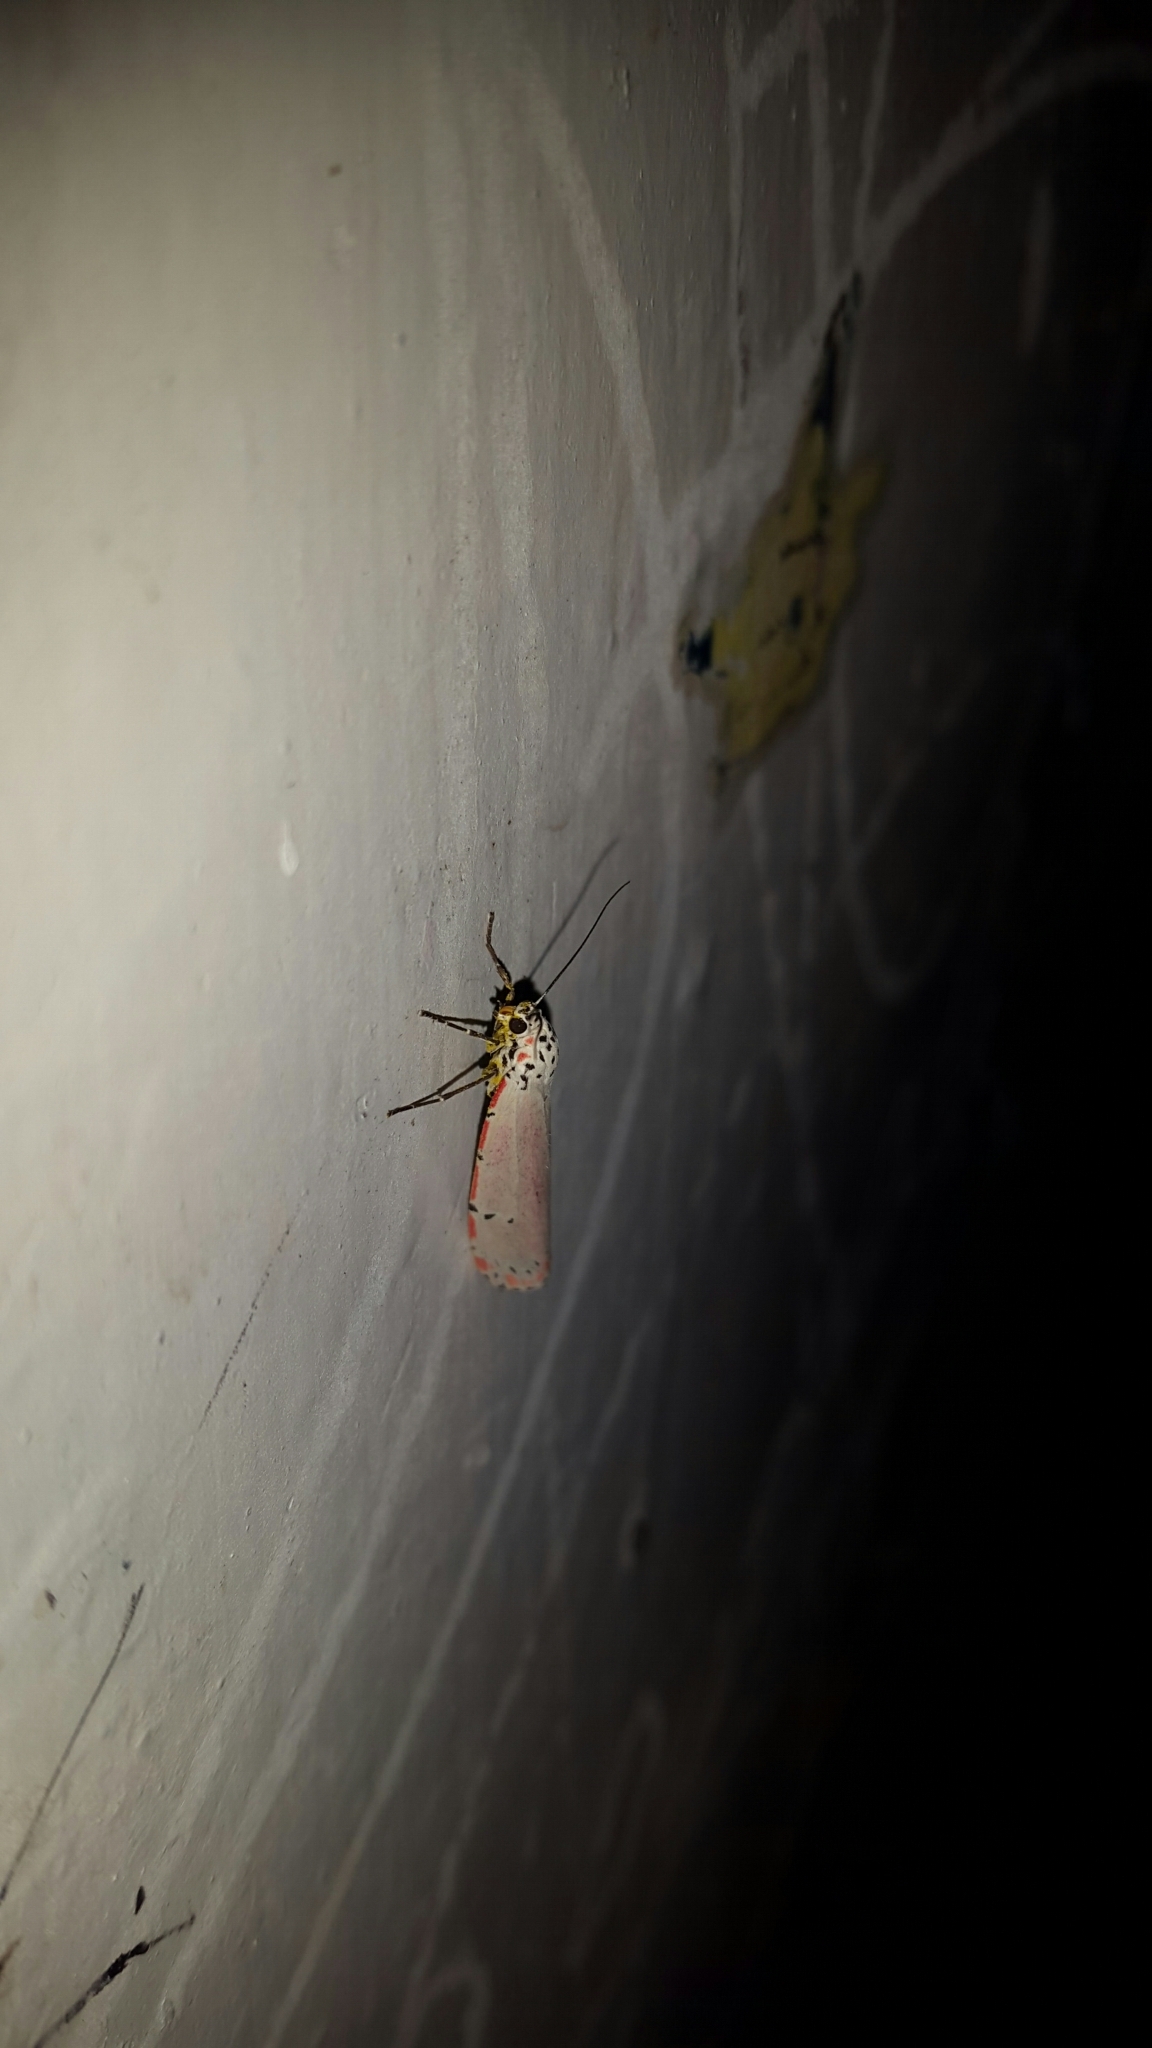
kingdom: Animalia
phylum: Arthropoda
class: Insecta
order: Lepidoptera
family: Erebidae
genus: Utetheisa
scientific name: Utetheisa ornatrix
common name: Beautiful utetheisa
